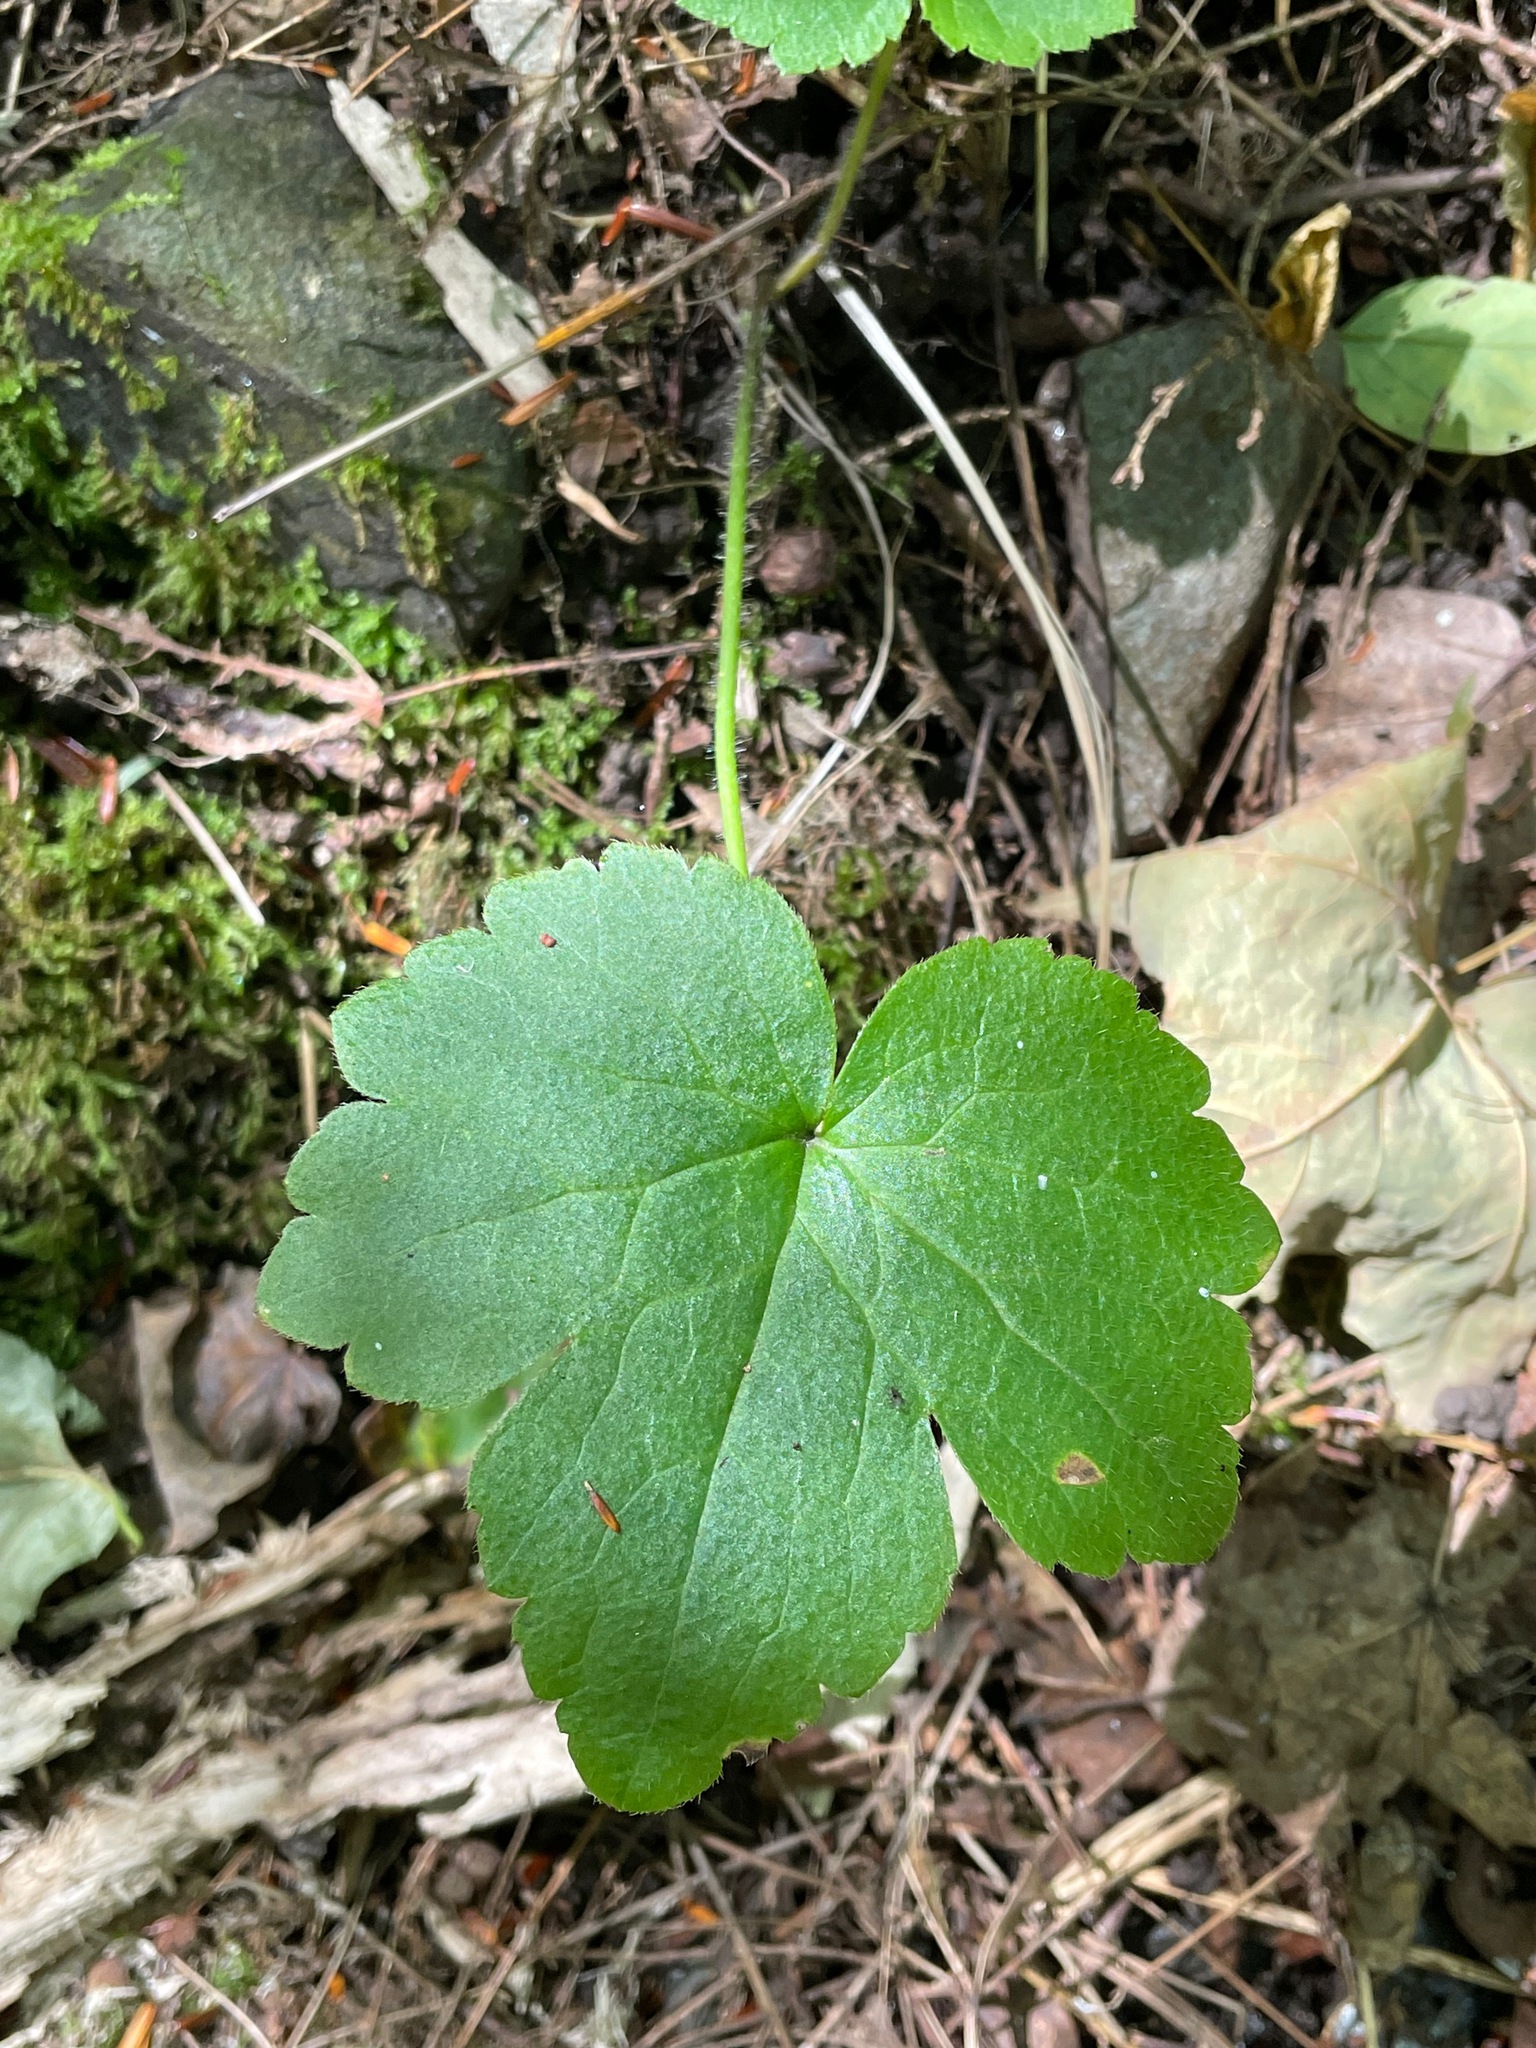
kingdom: Plantae
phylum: Tracheophyta
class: Magnoliopsida
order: Ranunculales
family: Ranunculaceae
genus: Ranunculus
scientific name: Ranunculus recurvatus
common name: Blisterwort
